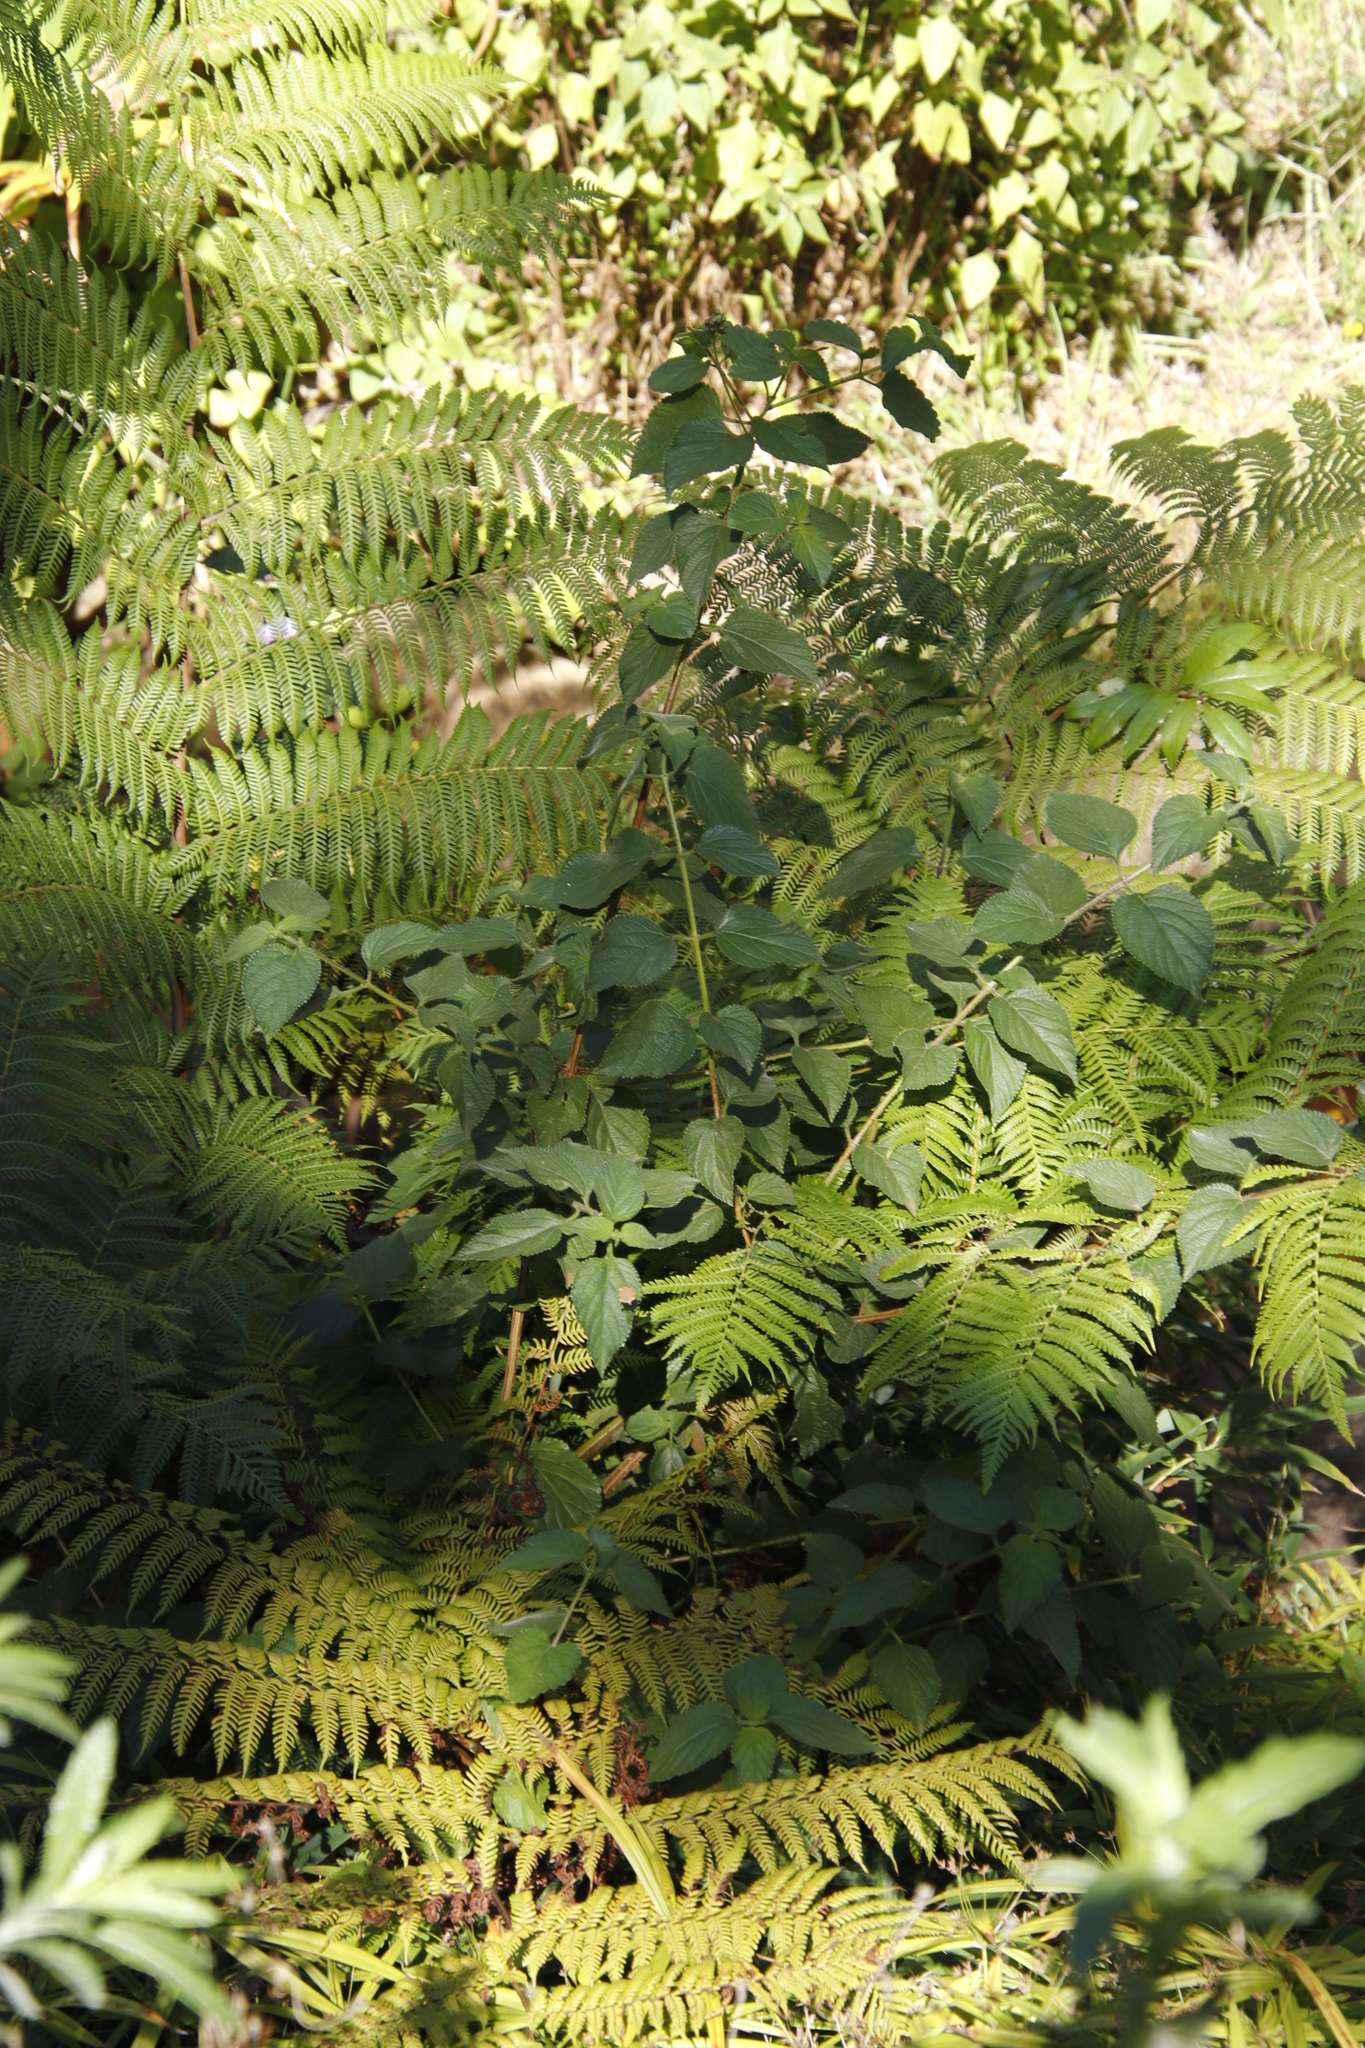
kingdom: Plantae
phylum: Tracheophyta
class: Magnoliopsida
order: Lamiales
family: Verbenaceae
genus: Lantana
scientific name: Lantana camara
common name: Lantana
